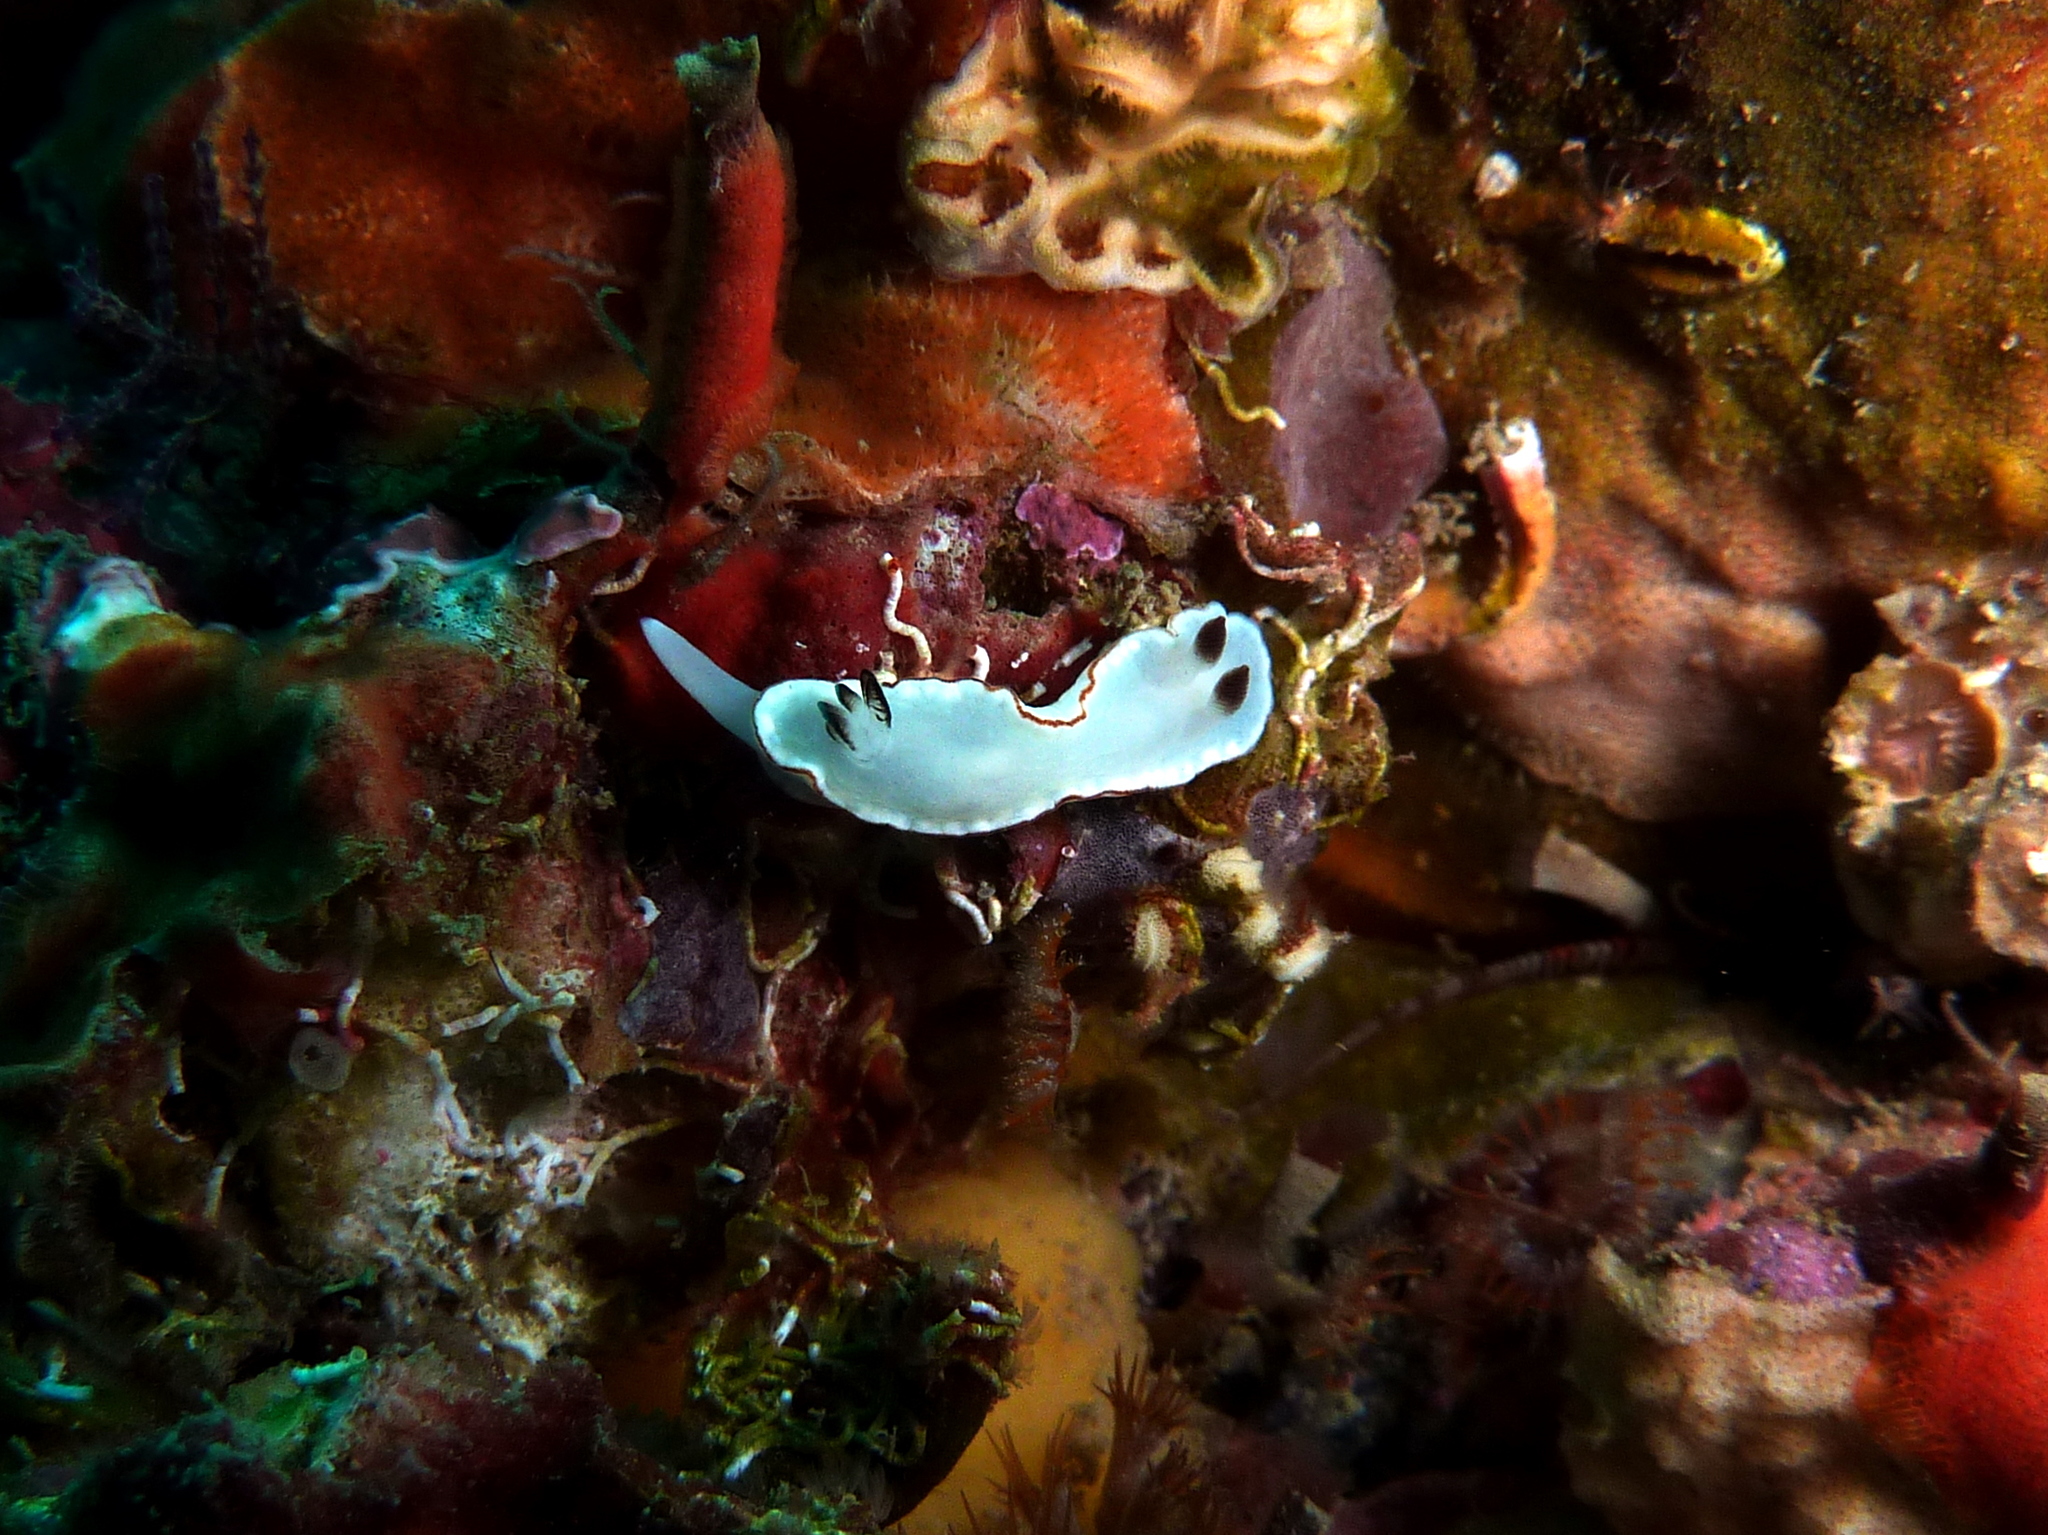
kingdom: Animalia
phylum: Mollusca
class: Gastropoda
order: Nudibranchia
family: Chromodorididae
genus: Glossodoris
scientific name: Glossodoris angasi
